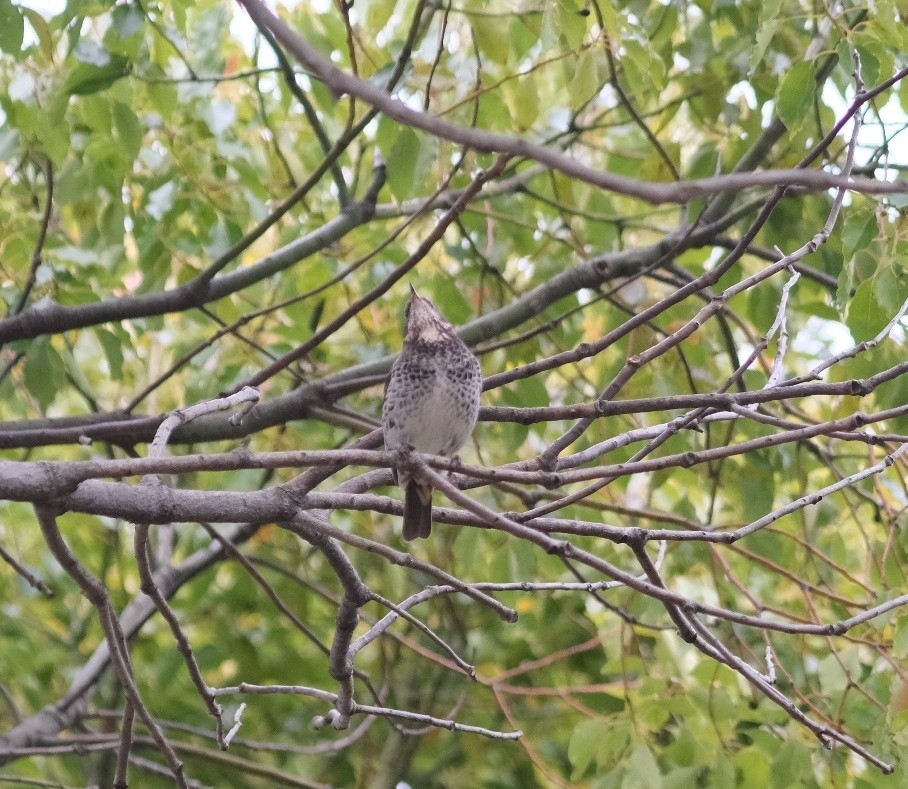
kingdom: Animalia
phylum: Chordata
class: Aves
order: Passeriformes
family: Turdidae
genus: Turdus
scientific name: Turdus eunomus
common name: Dusky thrush
